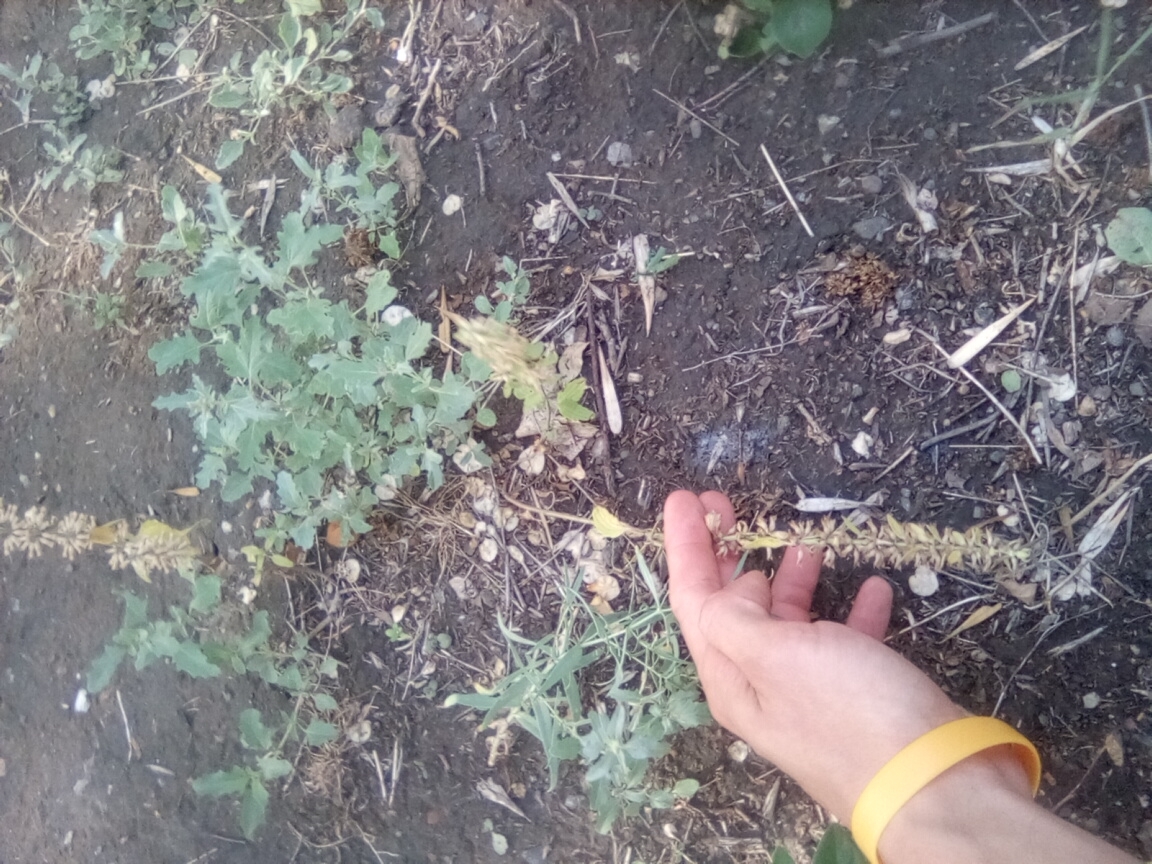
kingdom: Plantae
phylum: Tracheophyta
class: Magnoliopsida
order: Lamiales
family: Lamiaceae
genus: Dracocephalum
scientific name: Dracocephalum thymiflorum
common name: Thymeleaf dragonhead
